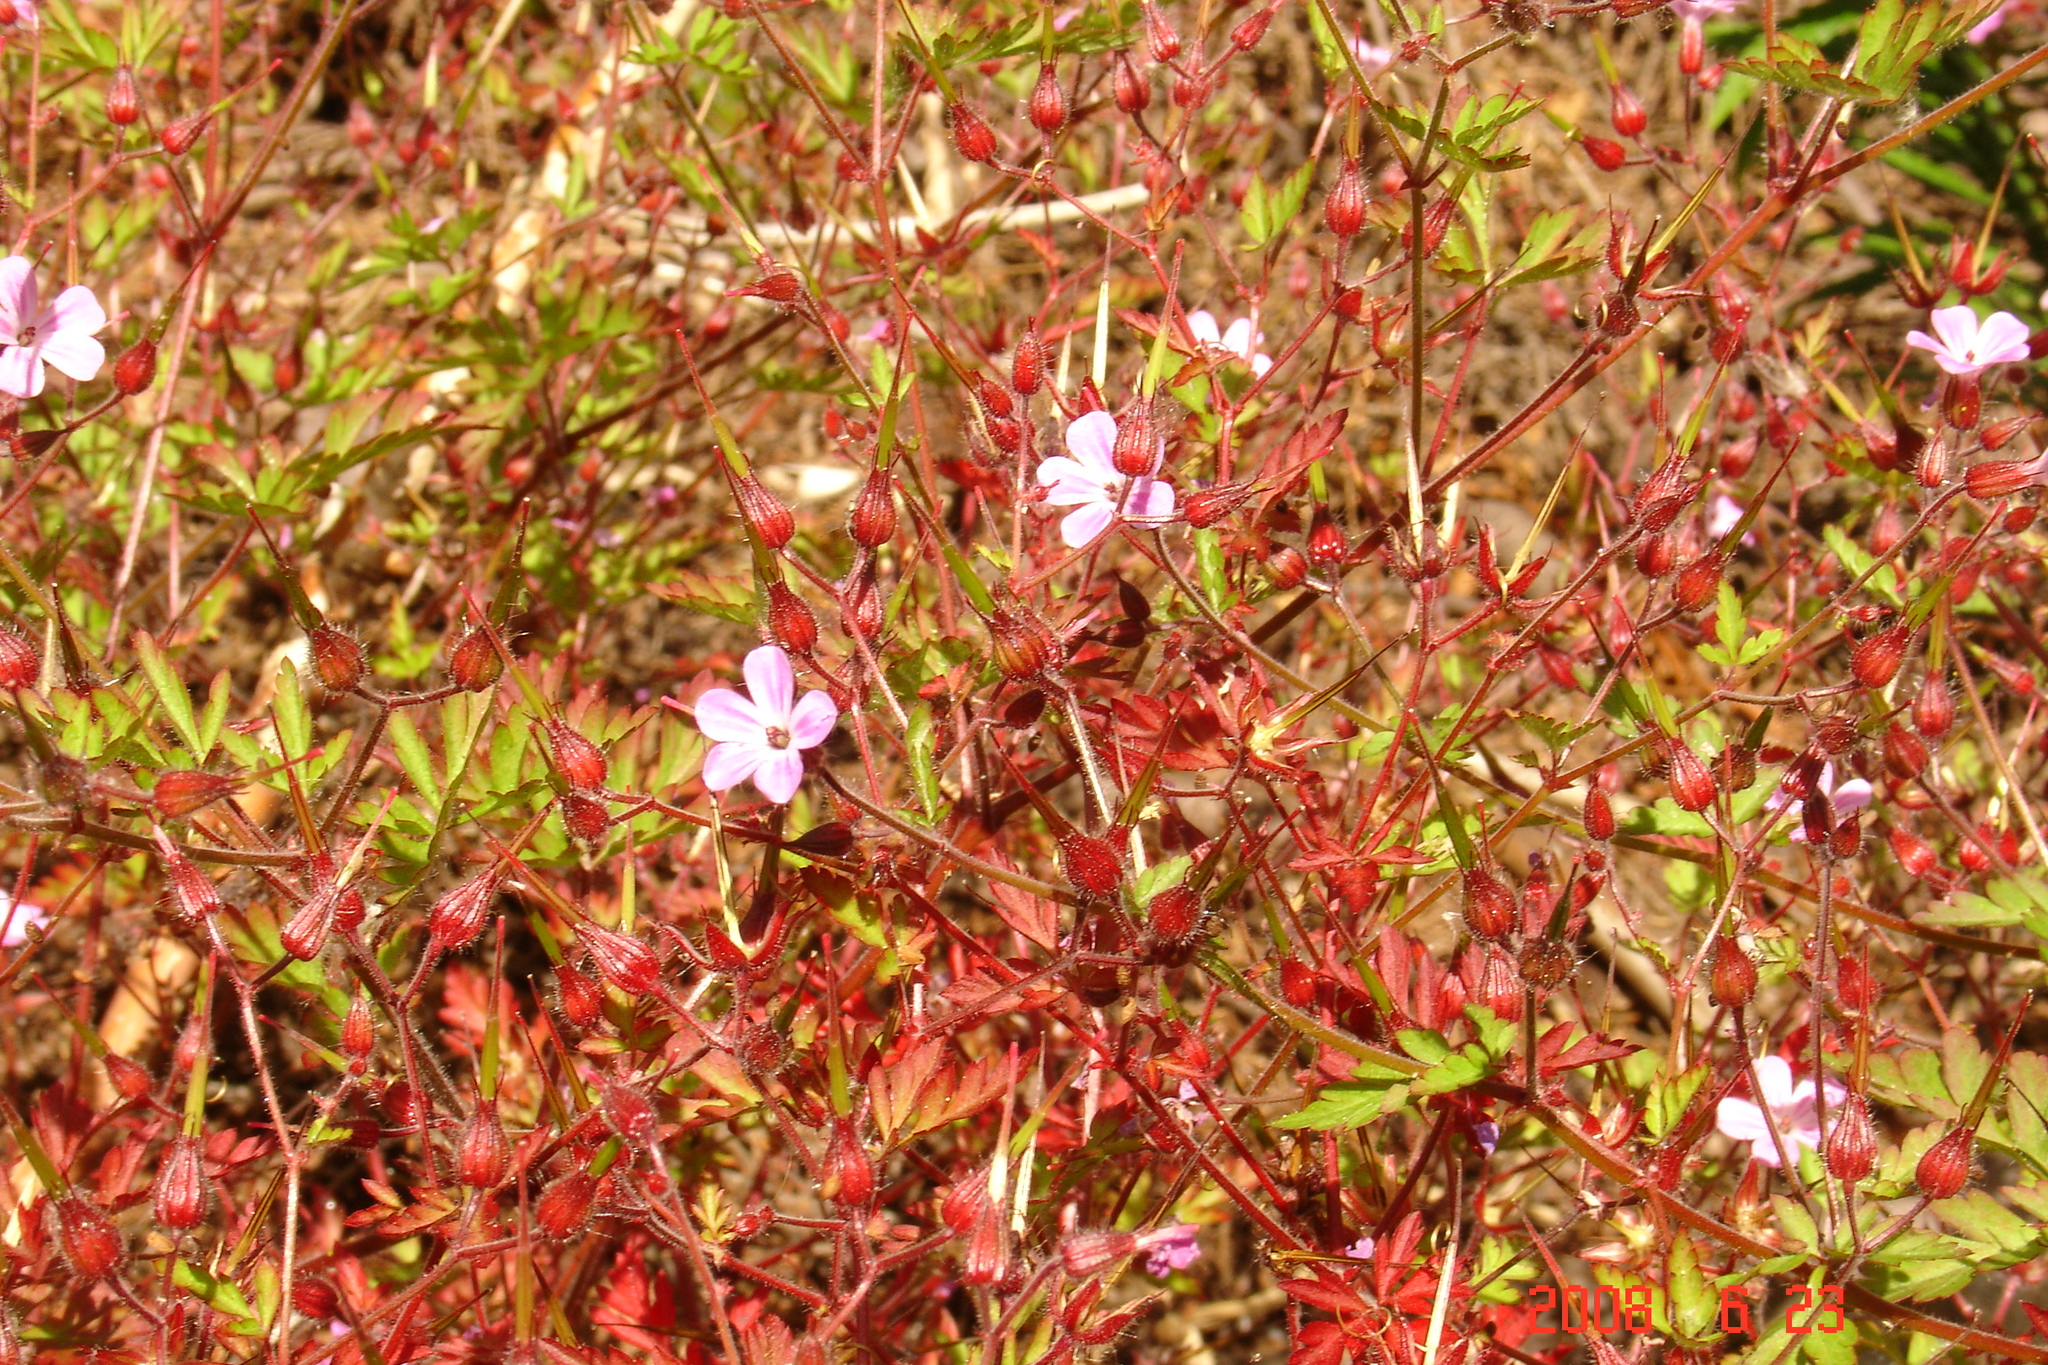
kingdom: Plantae
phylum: Tracheophyta
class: Magnoliopsida
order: Geraniales
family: Geraniaceae
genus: Geranium
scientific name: Geranium robertianum
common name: Herb-robert
